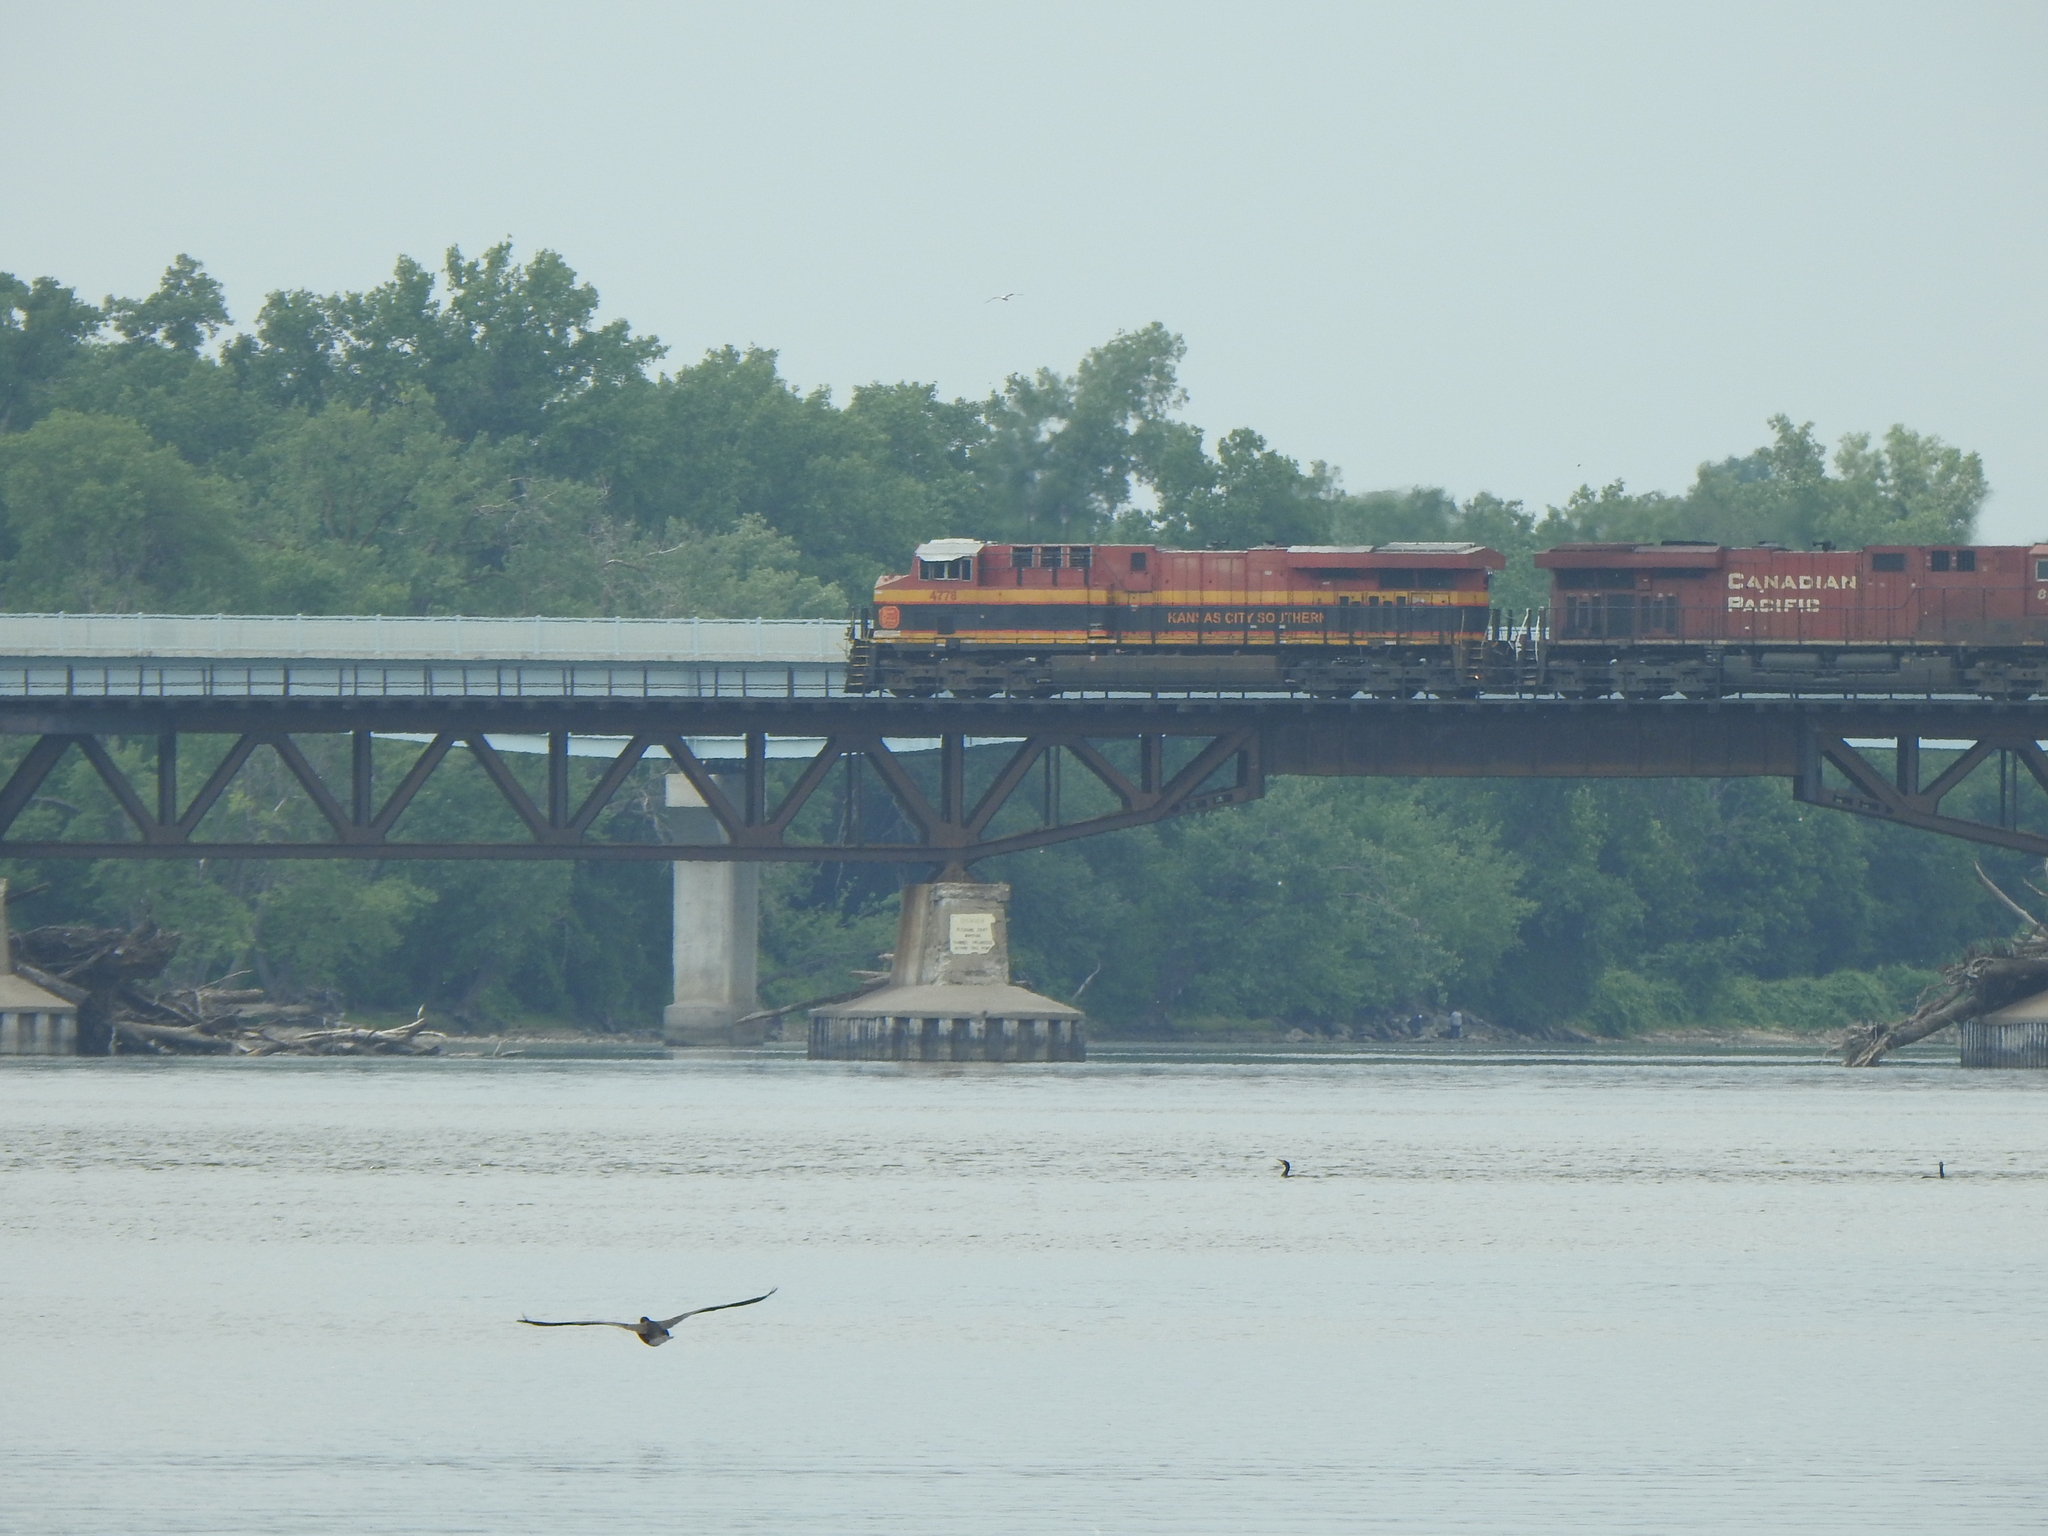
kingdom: Animalia
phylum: Chordata
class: Aves
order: Suliformes
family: Phalacrocoracidae
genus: Phalacrocorax
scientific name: Phalacrocorax auritus
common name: Double-crested cormorant
